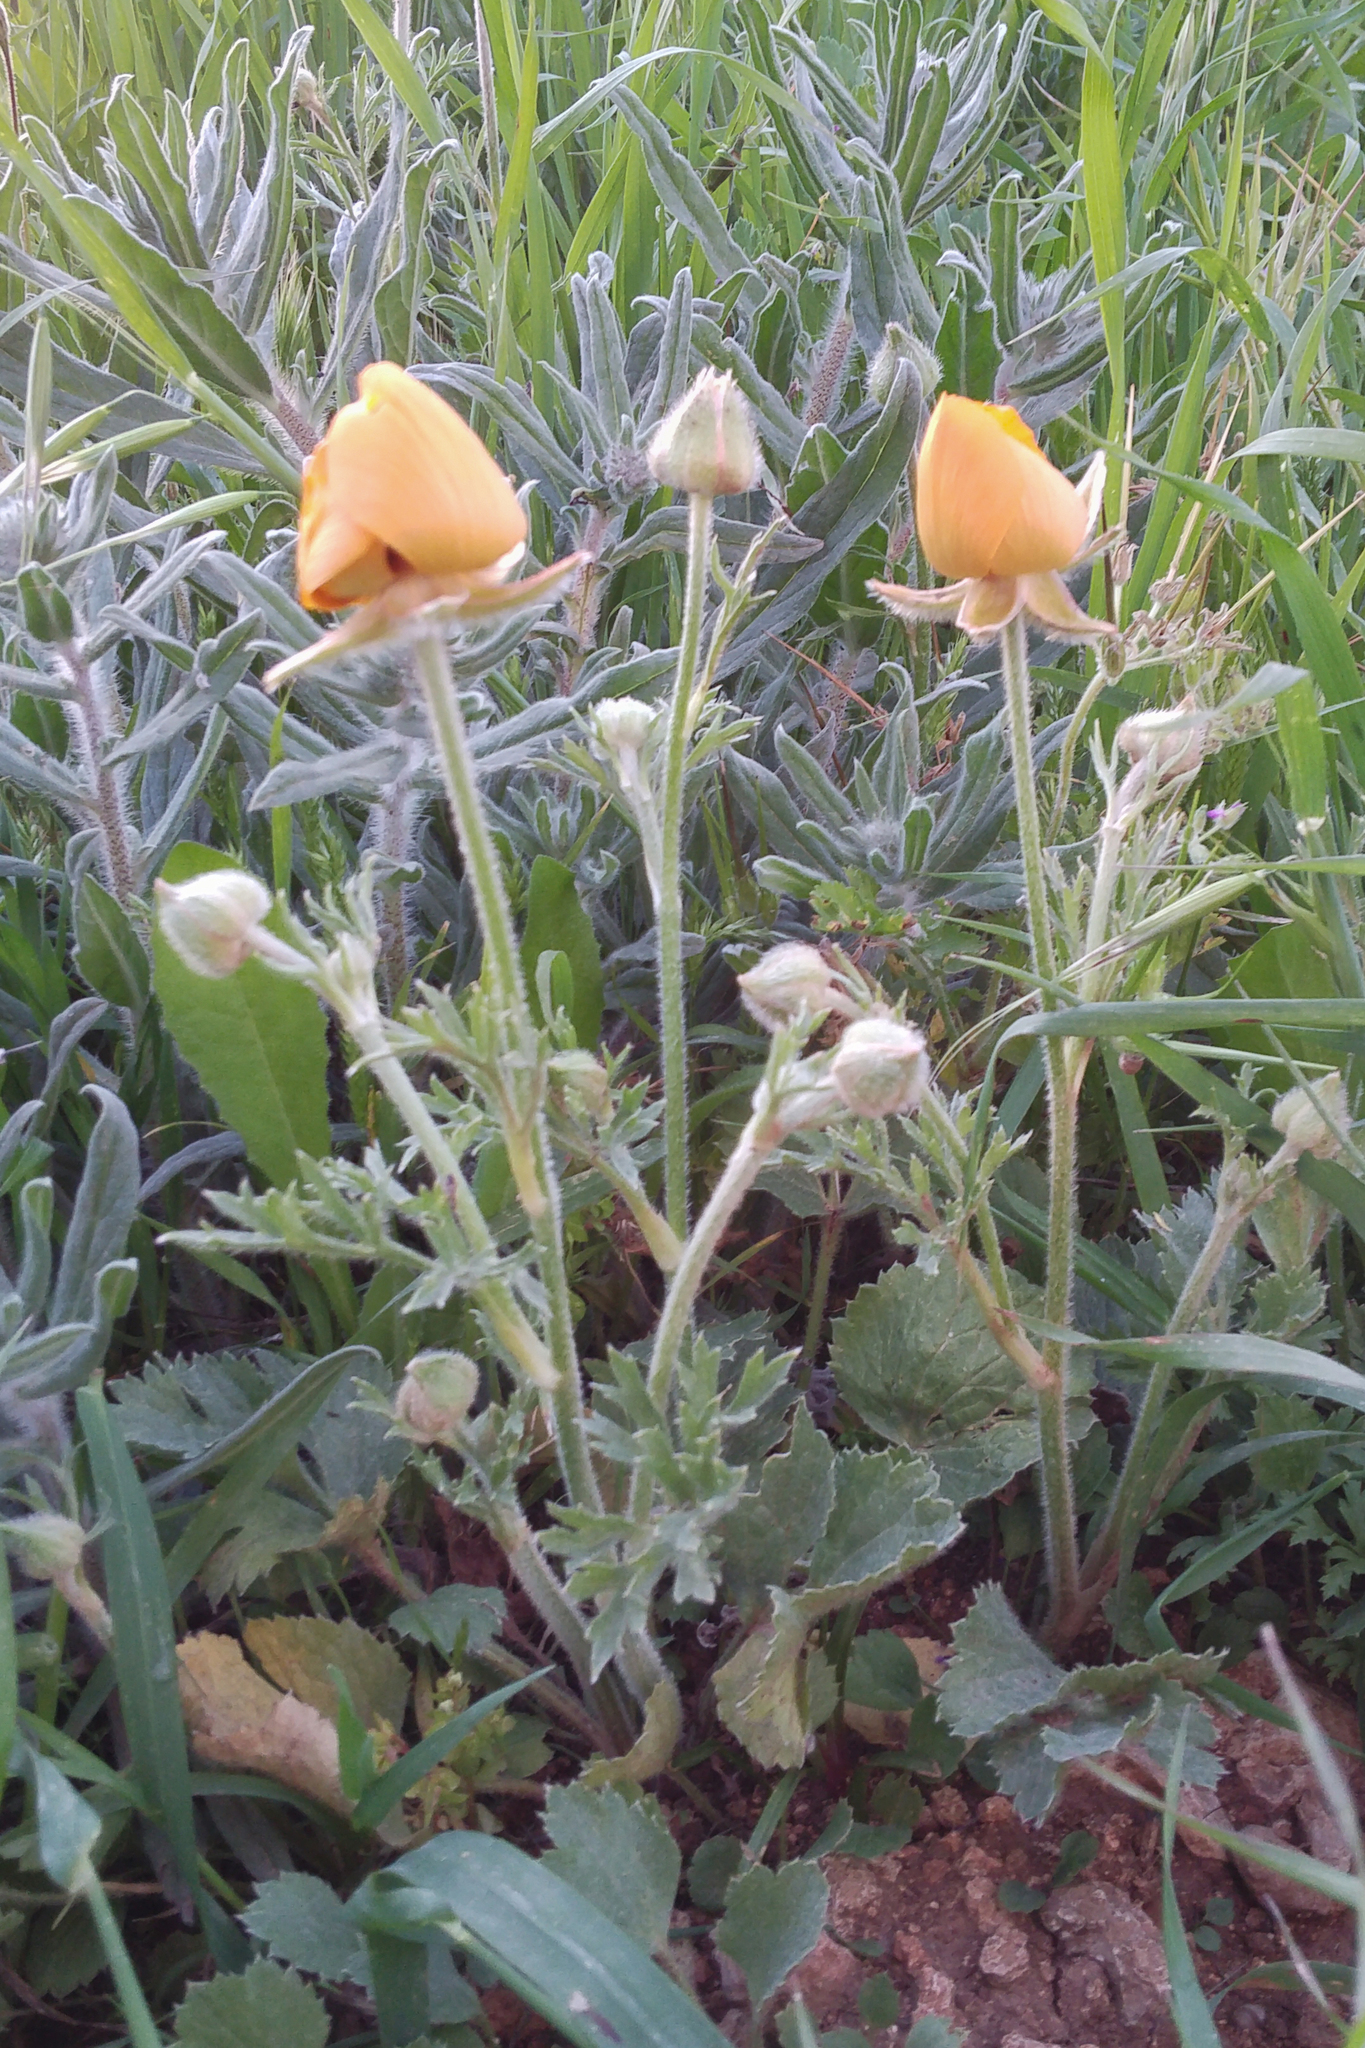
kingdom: Plantae
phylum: Tracheophyta
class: Magnoliopsida
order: Ranunculales
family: Ranunculaceae
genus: Ranunculus
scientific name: Ranunculus asiaticus
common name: Persian buttercup
